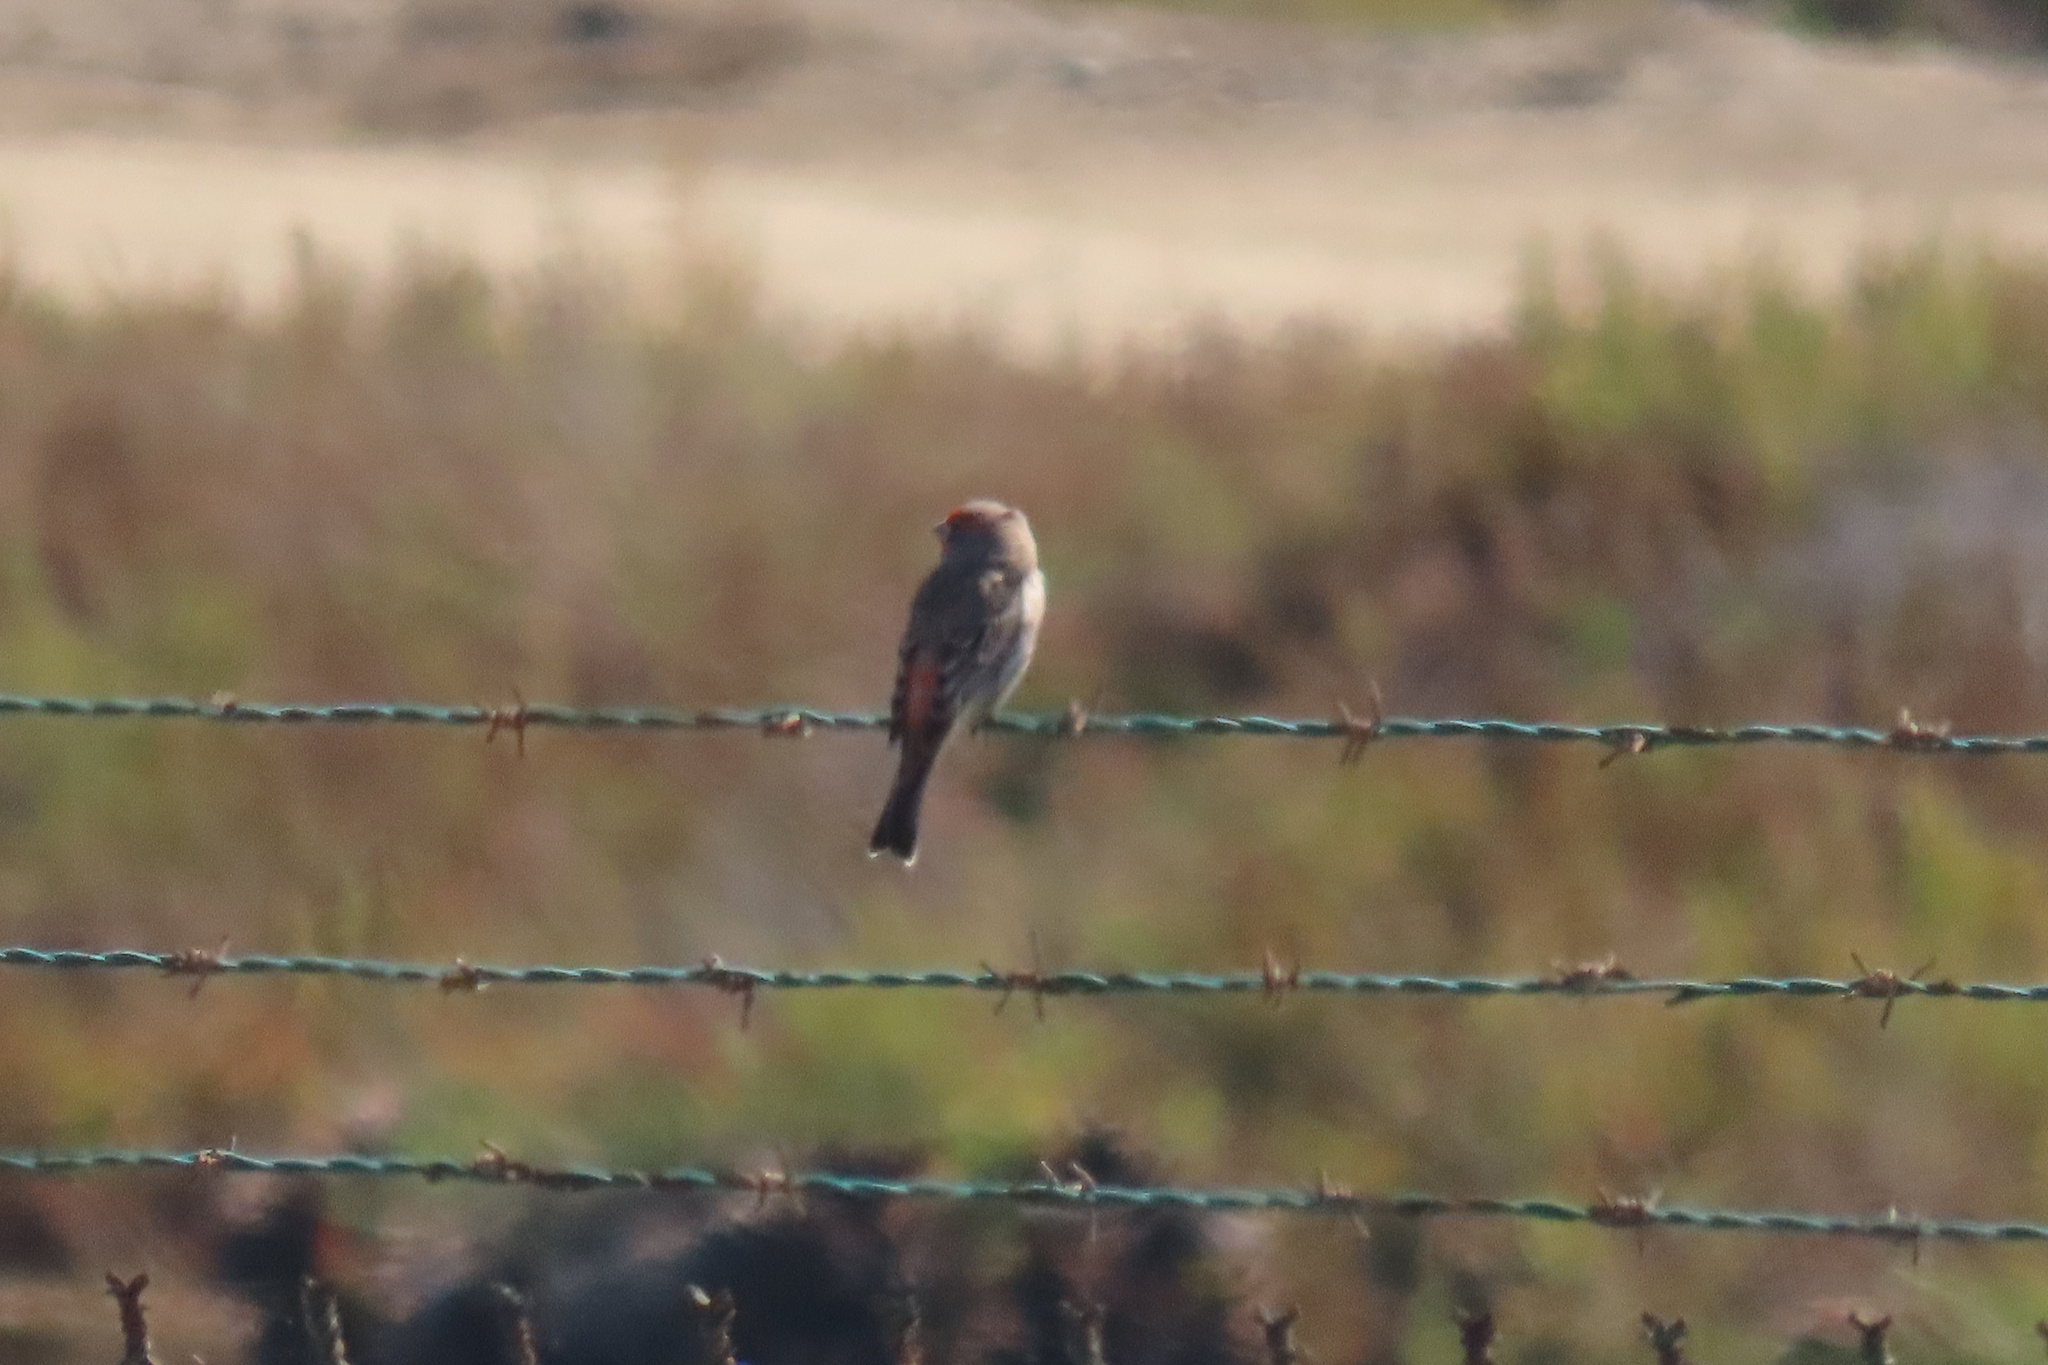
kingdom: Animalia
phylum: Chordata
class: Aves
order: Passeriformes
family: Fringillidae
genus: Haemorhous
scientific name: Haemorhous mexicanus
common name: House finch
